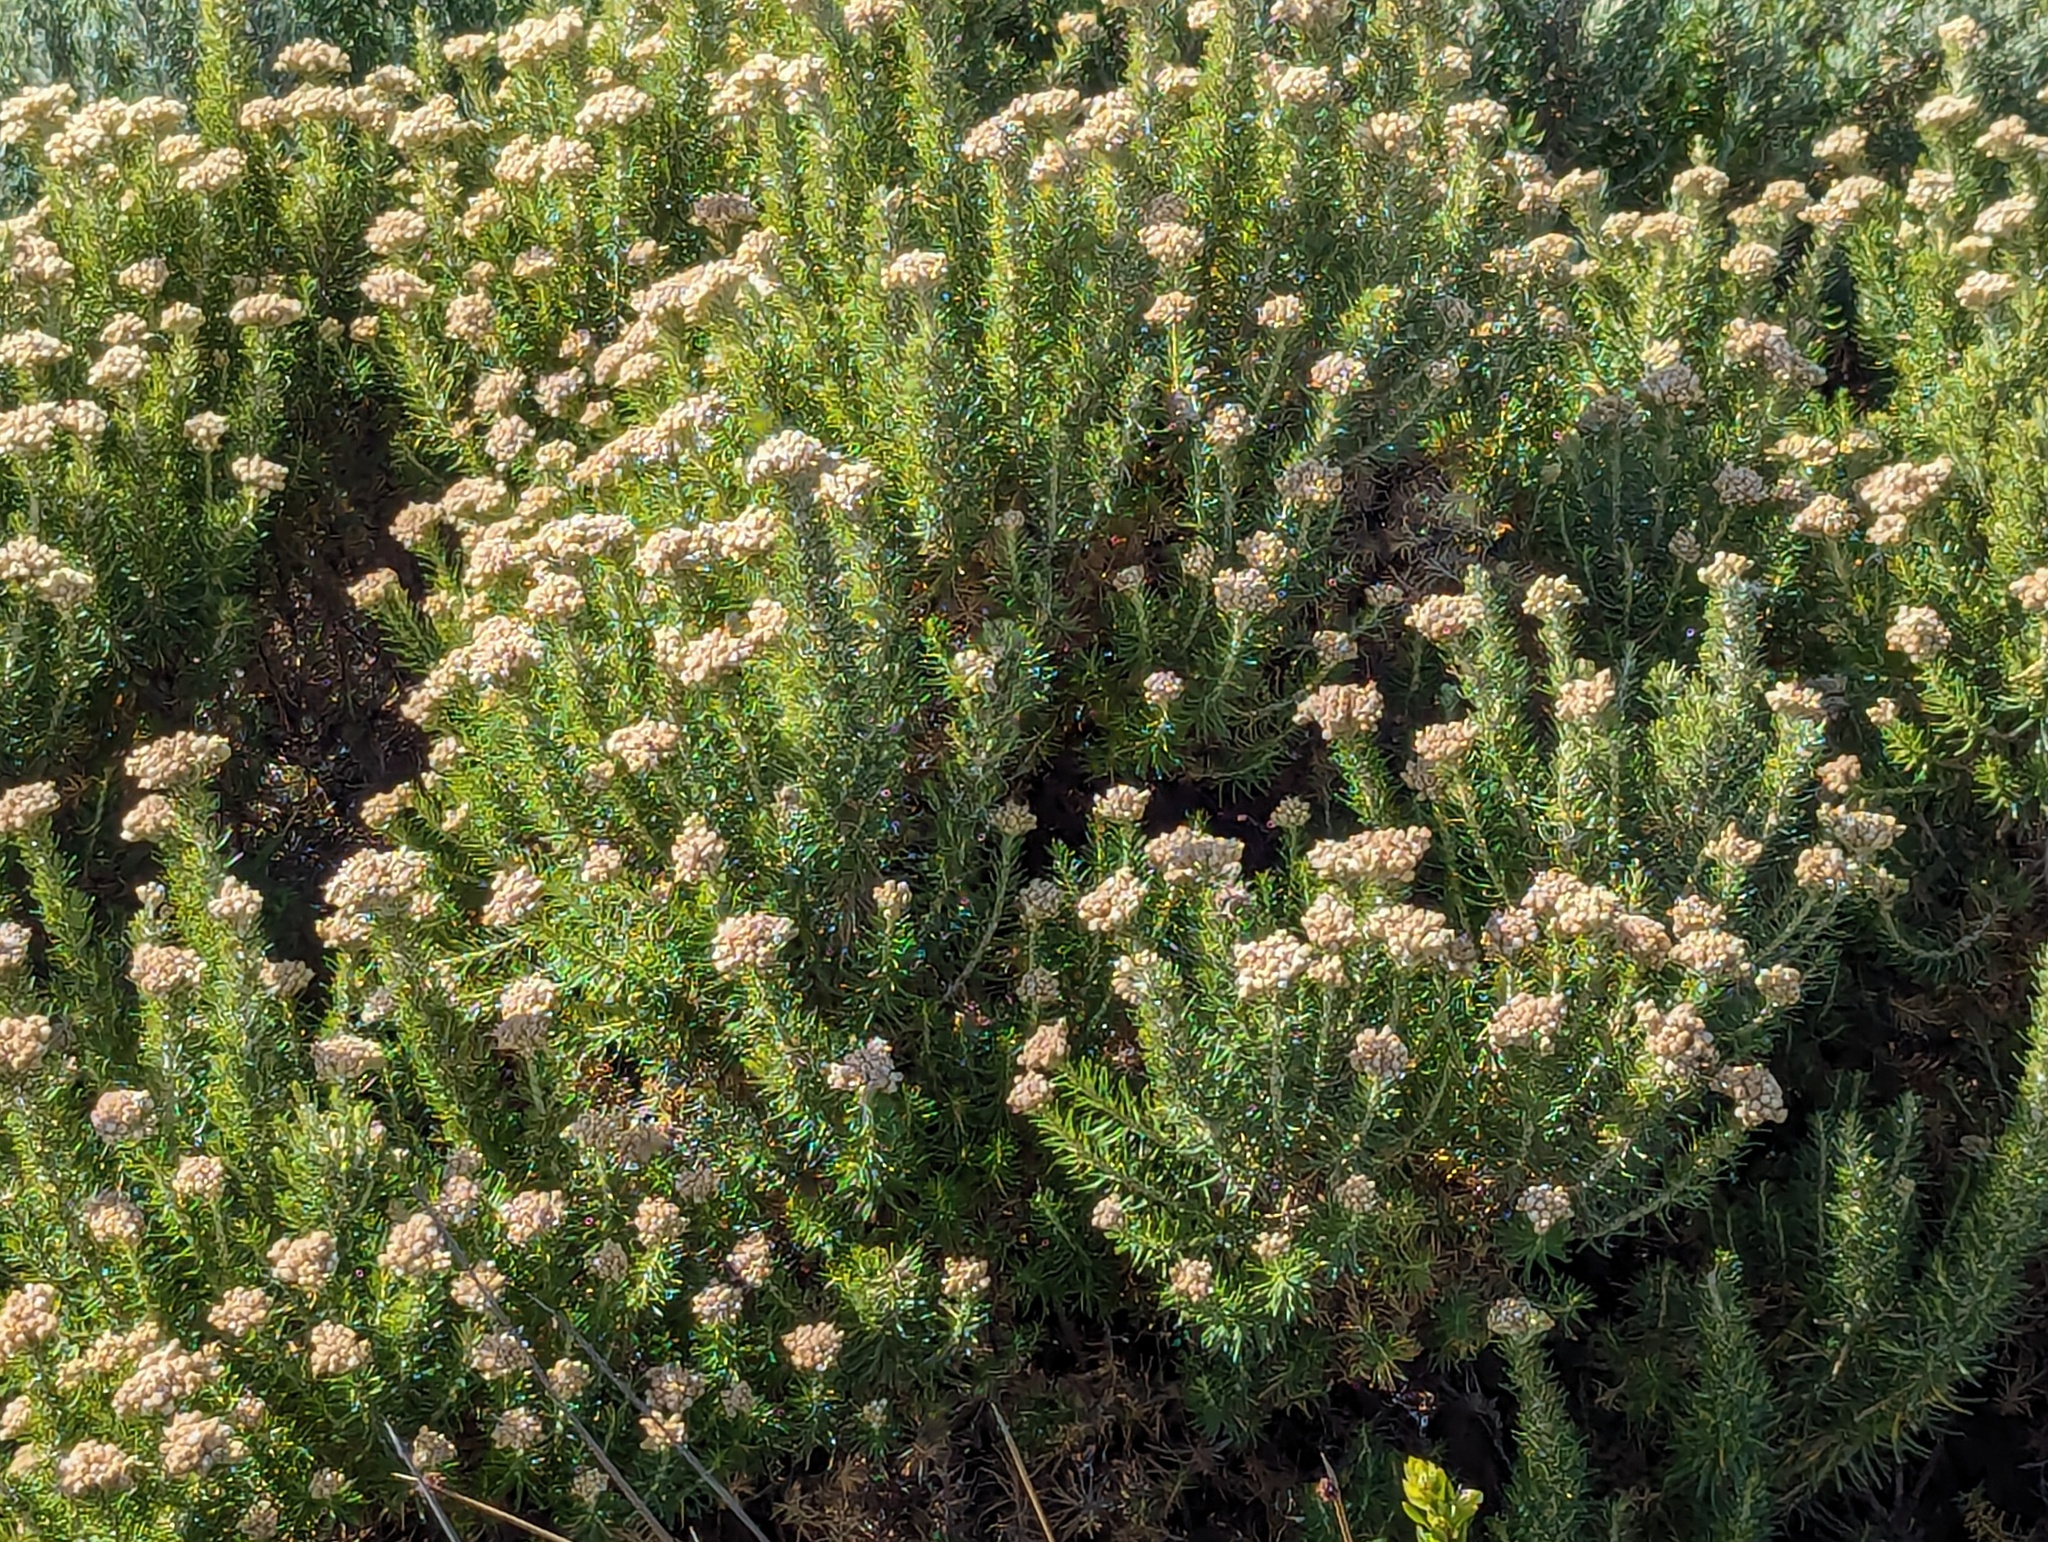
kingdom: Plantae
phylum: Tracheophyta
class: Magnoliopsida
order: Asterales
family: Asteraceae
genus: Ozothamnus
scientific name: Ozothamnus cinereus
